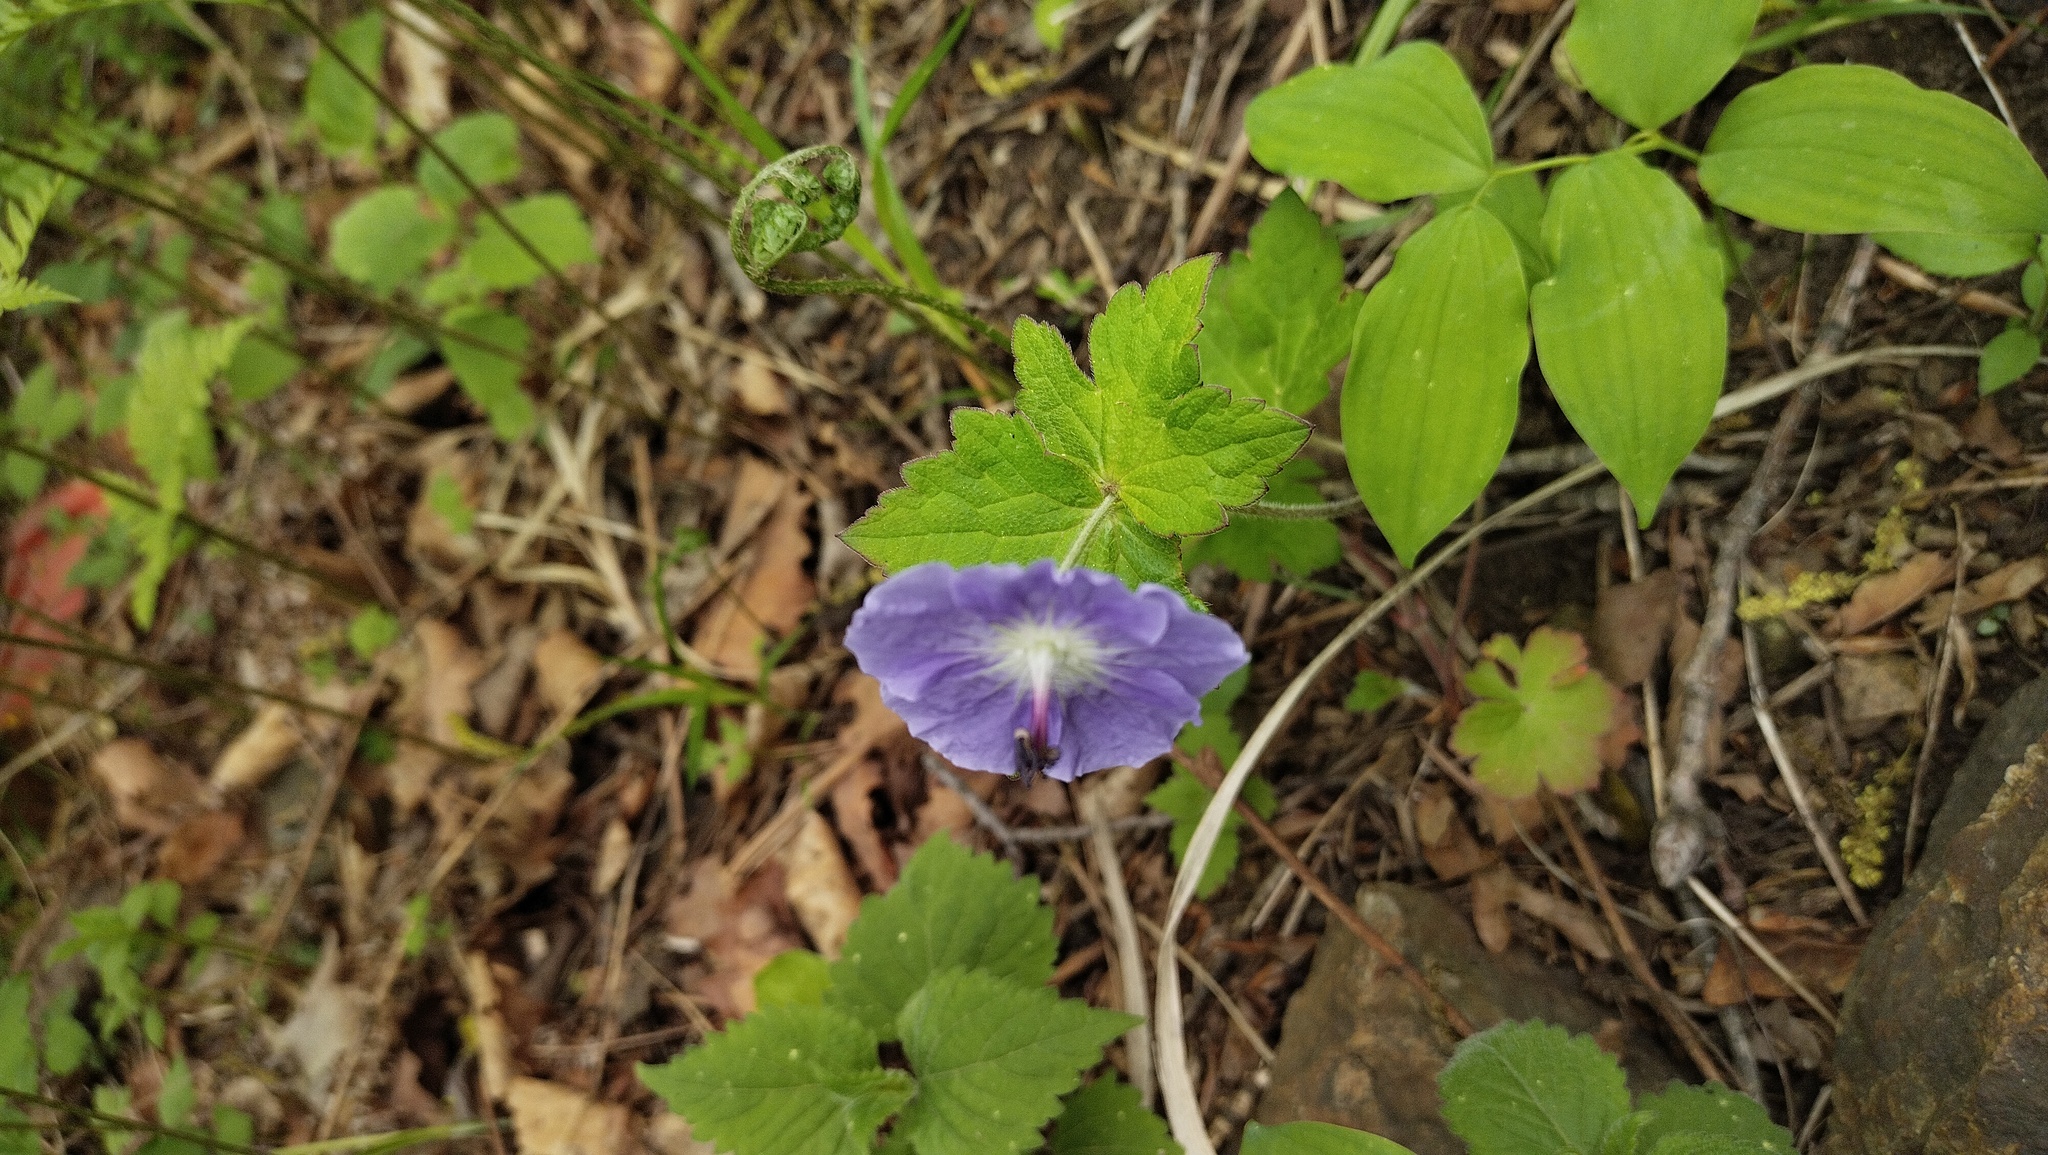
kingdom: Plantae
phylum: Tracheophyta
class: Magnoliopsida
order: Geraniales
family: Geraniaceae
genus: Geranium
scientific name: Geranium platyanthum
